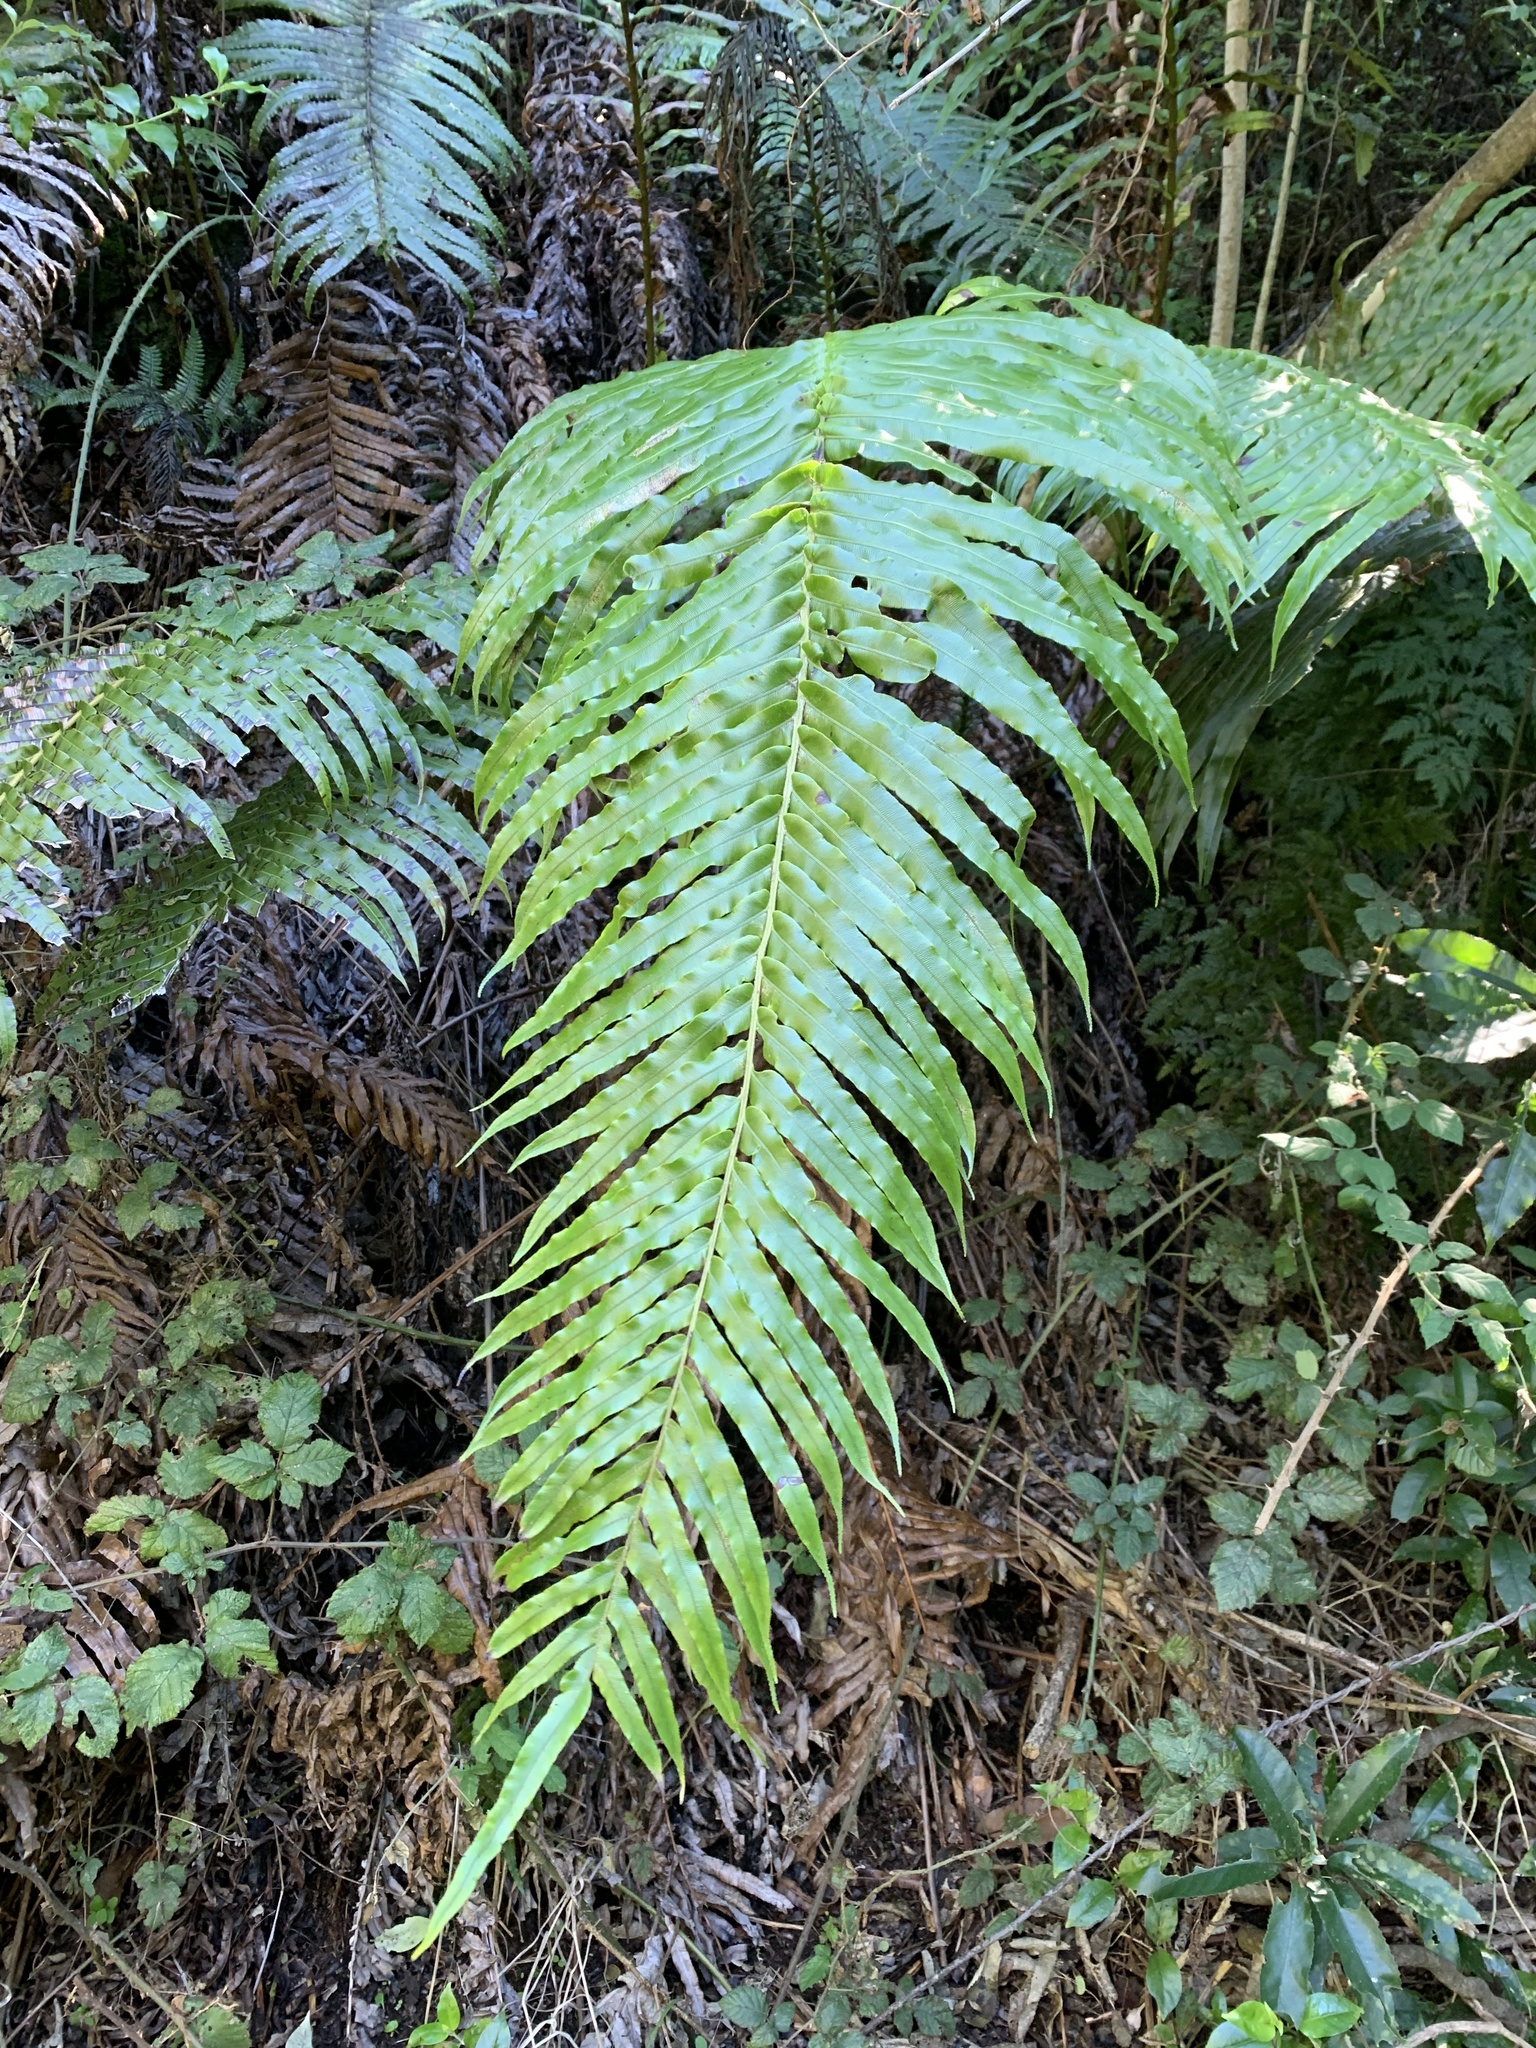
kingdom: Plantae
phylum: Tracheophyta
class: Polypodiopsida
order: Polypodiales
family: Blechnaceae
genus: Parablechnum
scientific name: Parablechnum novae-zelandiae
